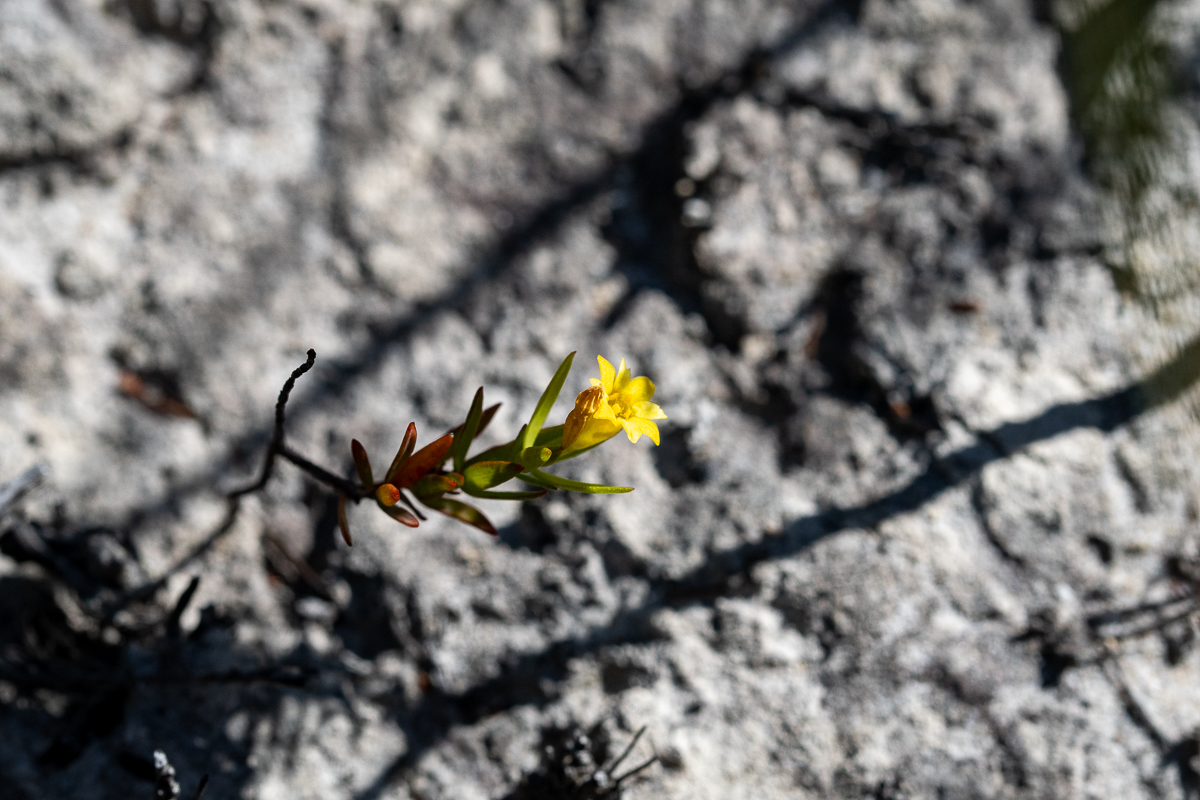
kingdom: Plantae
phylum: Tracheophyta
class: Magnoliopsida
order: Malvales
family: Thymelaeaceae
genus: Gnidia
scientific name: Gnidia juniperifolia
